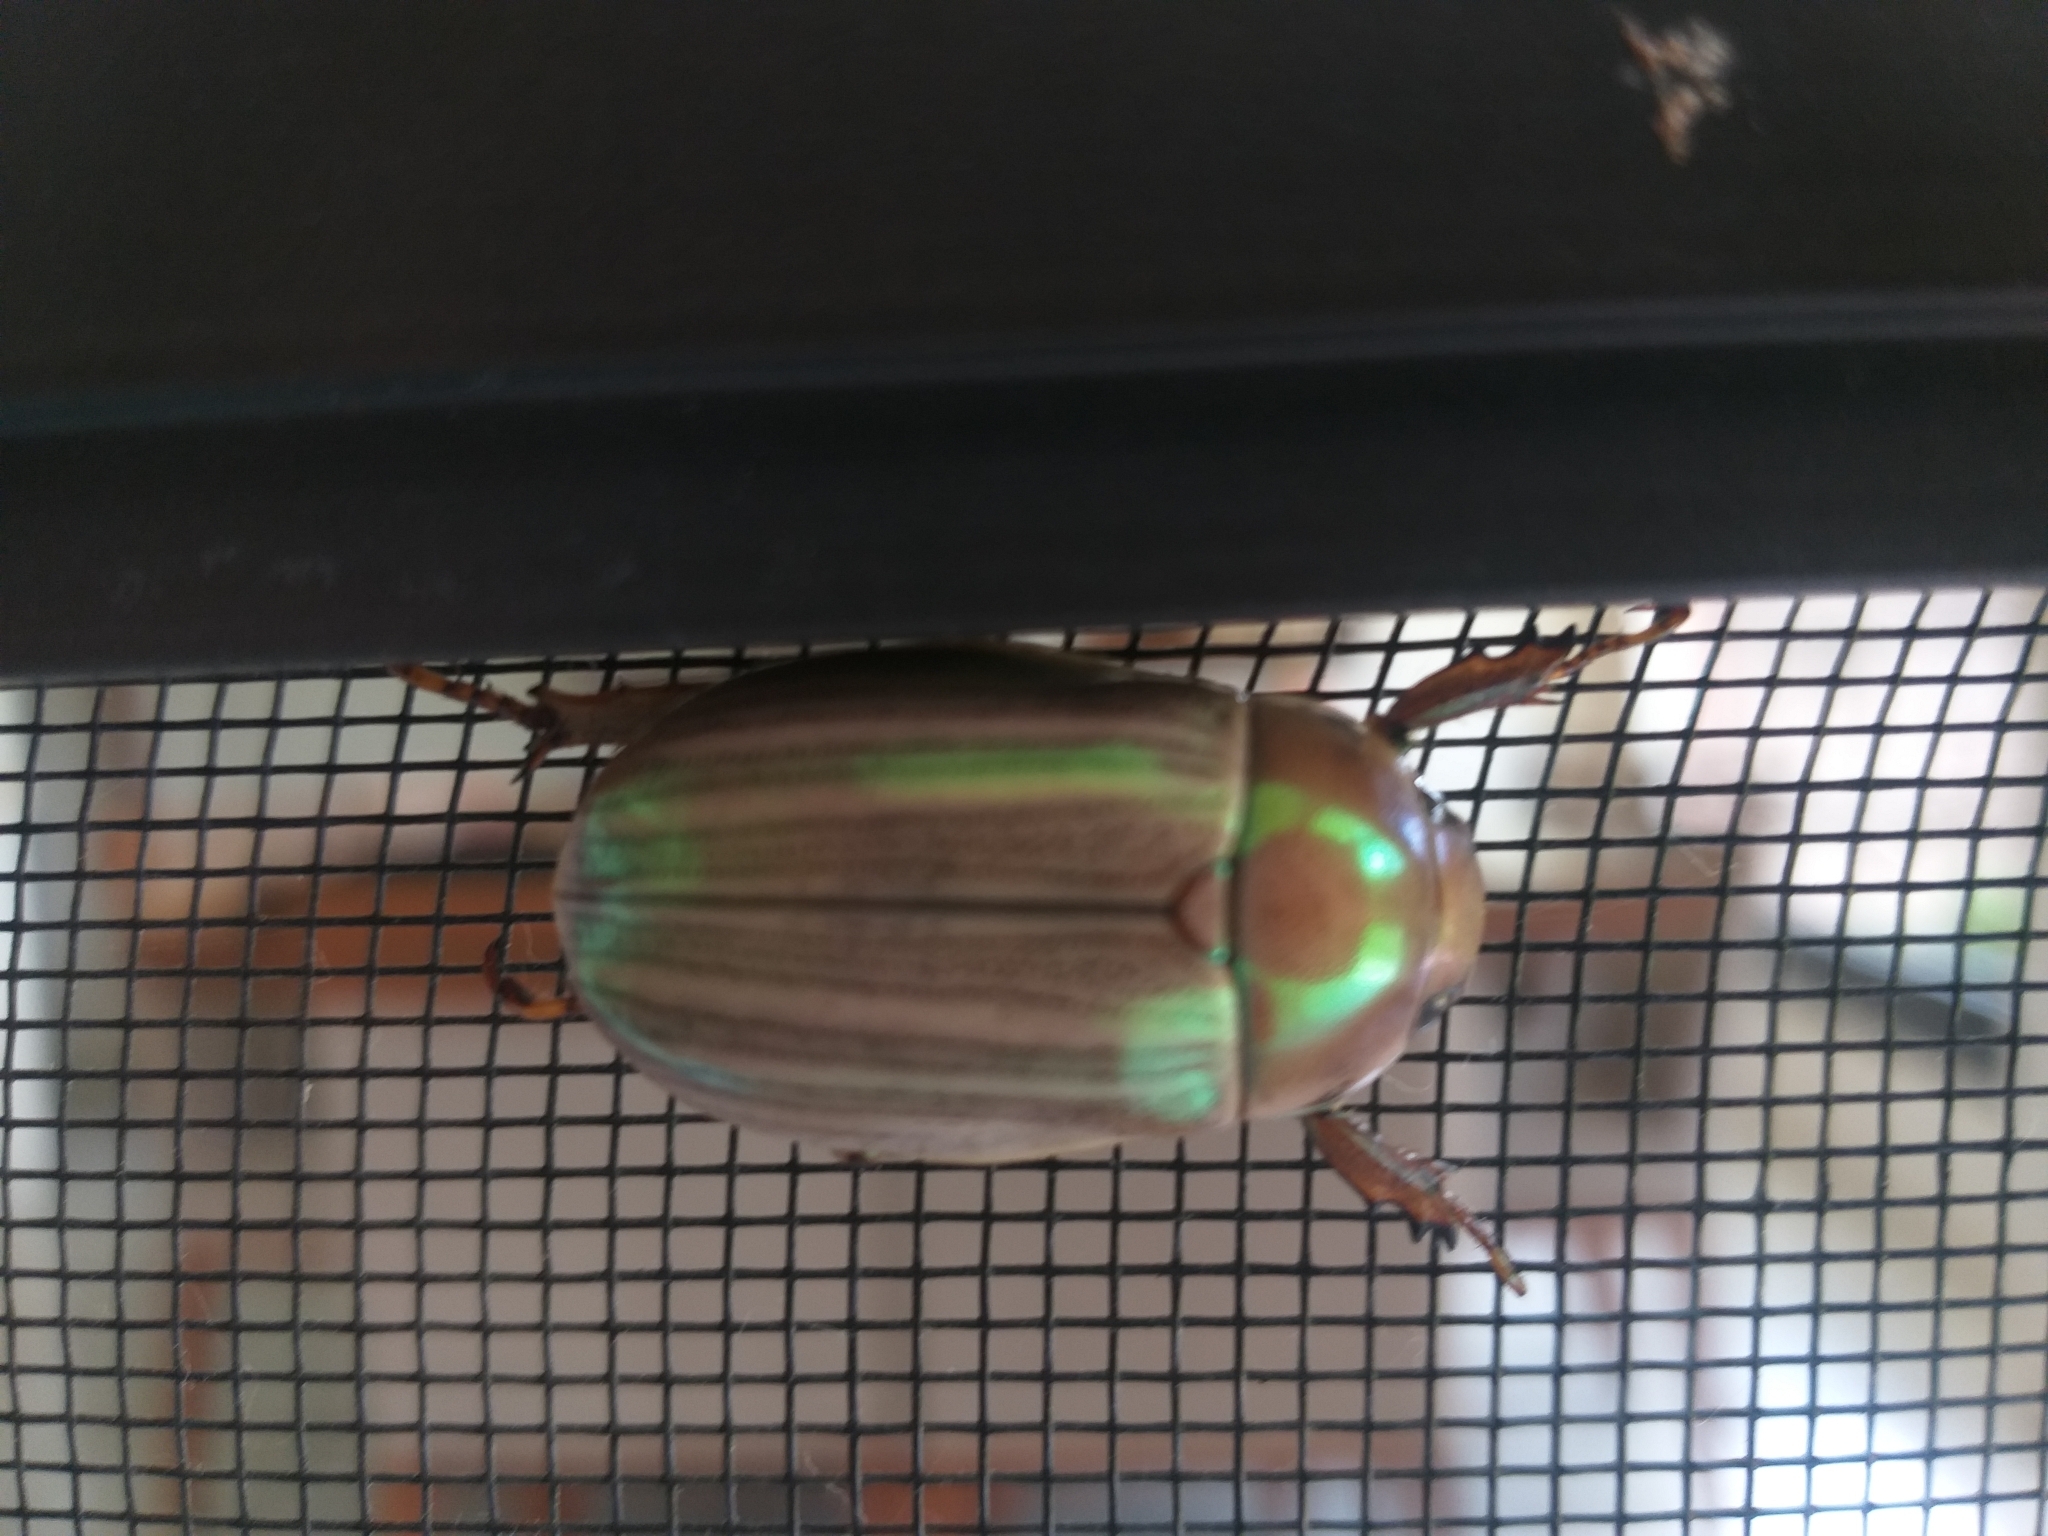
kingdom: Animalia
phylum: Arthropoda
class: Insecta
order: Coleoptera
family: Scarabaeidae
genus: Pelidnota
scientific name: Pelidnota virescens
